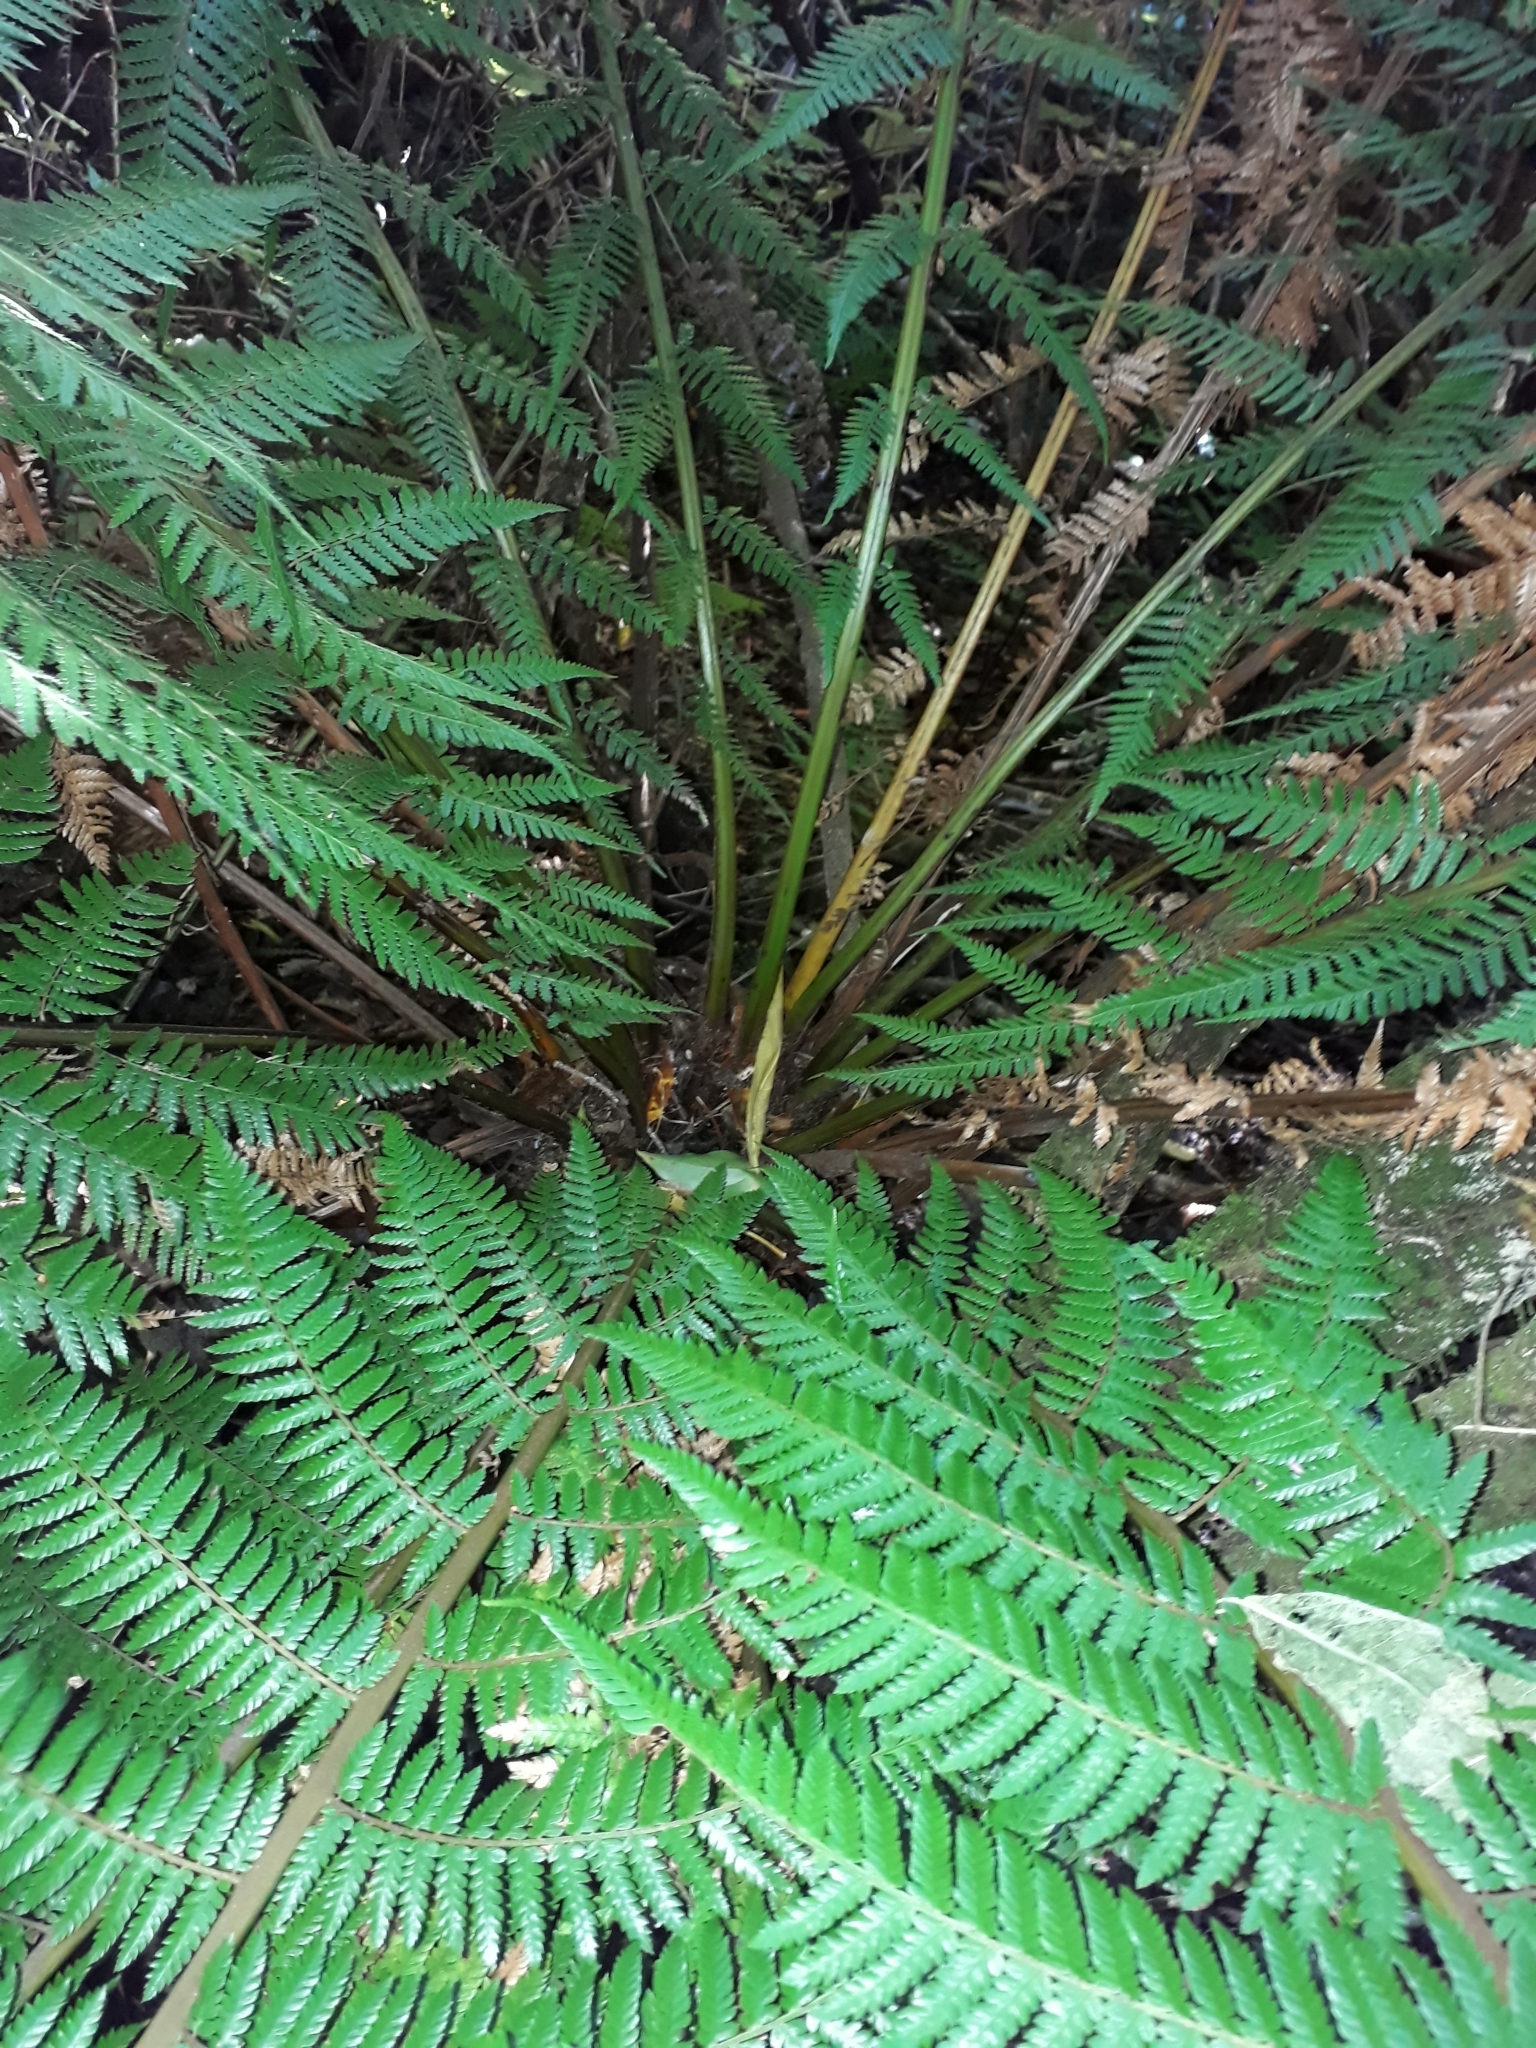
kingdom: Plantae
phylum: Tracheophyta
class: Polypodiopsida
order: Cyatheales
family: Dicksoniaceae
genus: Dicksonia
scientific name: Dicksonia fibrosa
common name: Golden tree fern
